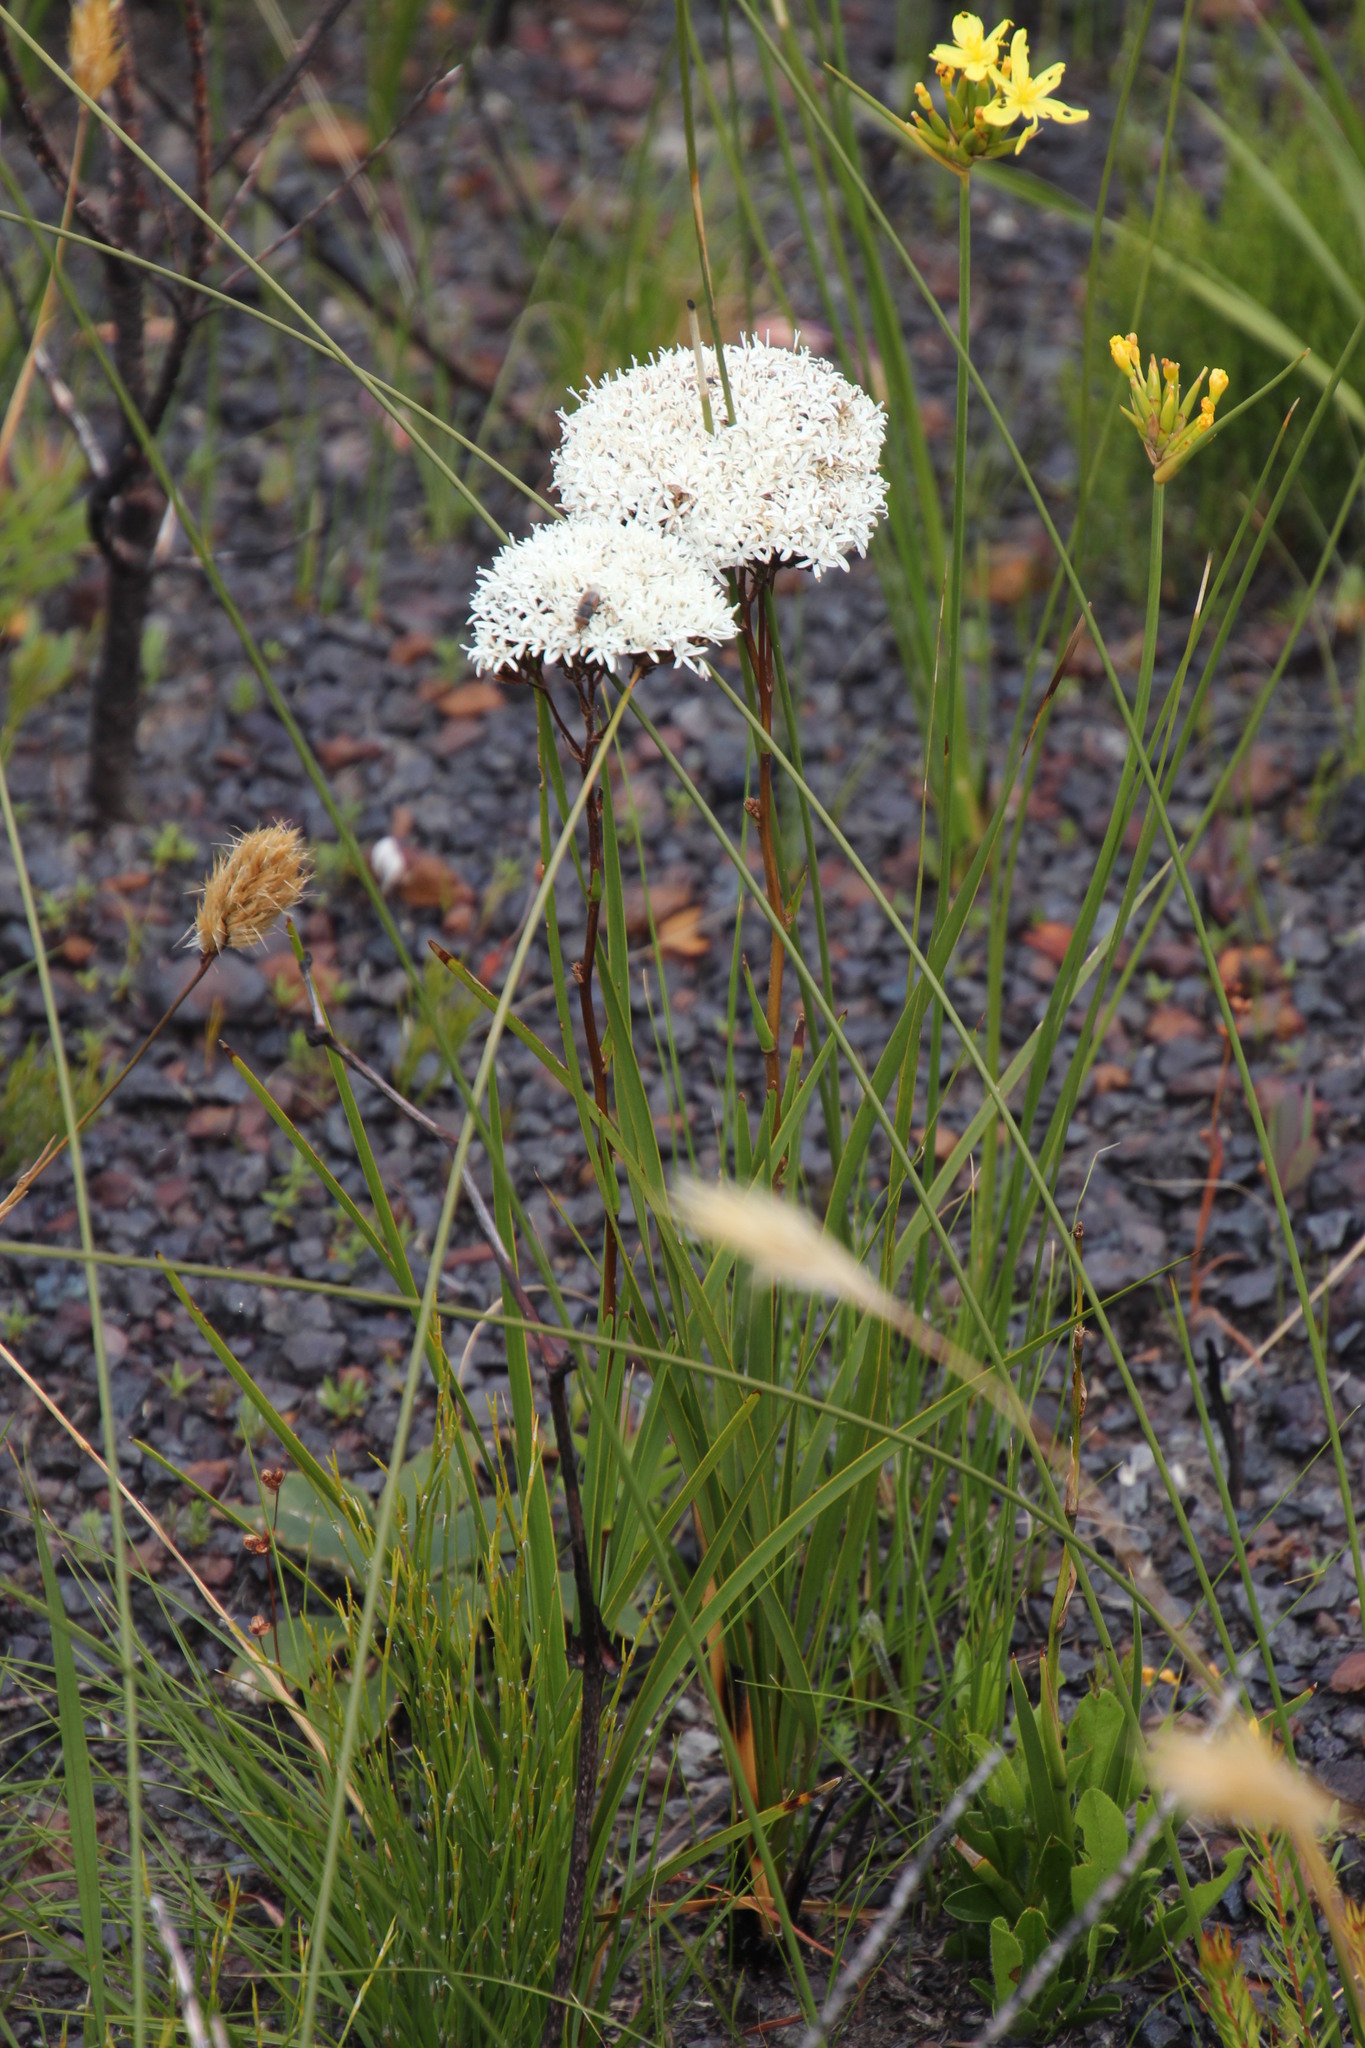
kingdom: Plantae
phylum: Tracheophyta
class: Magnoliopsida
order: Asterales
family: Asteraceae
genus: Corymbium
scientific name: Corymbium africanum
